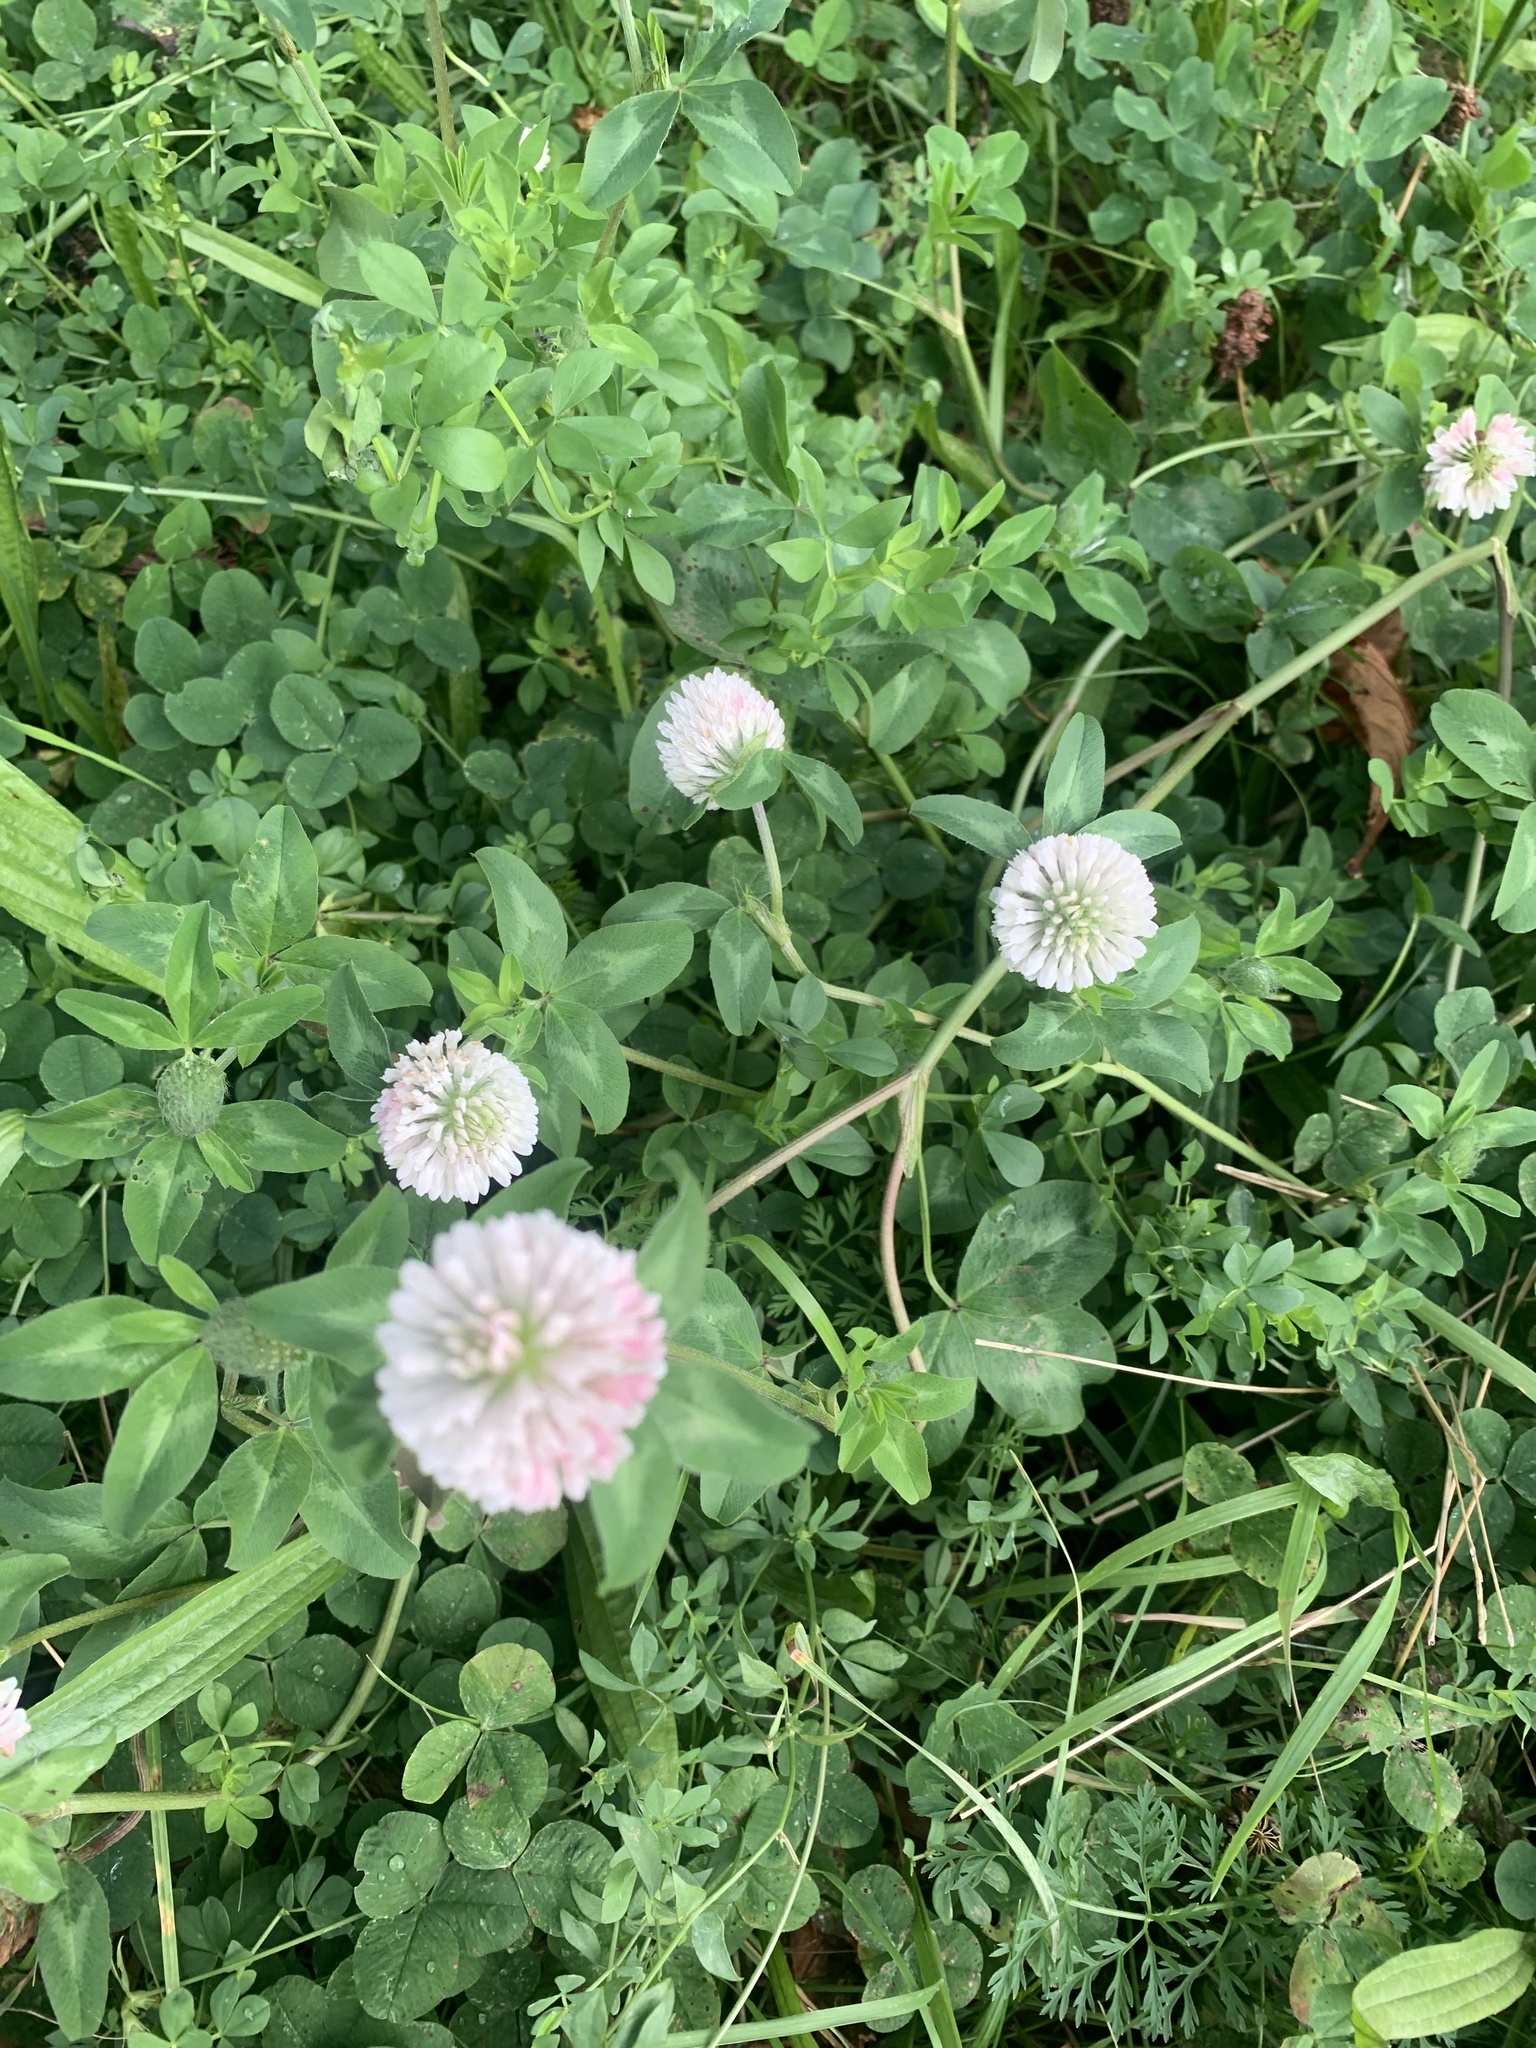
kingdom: Plantae
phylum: Tracheophyta
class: Magnoliopsida
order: Fabales
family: Fabaceae
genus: Trifolium
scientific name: Trifolium pratense
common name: Red clover
